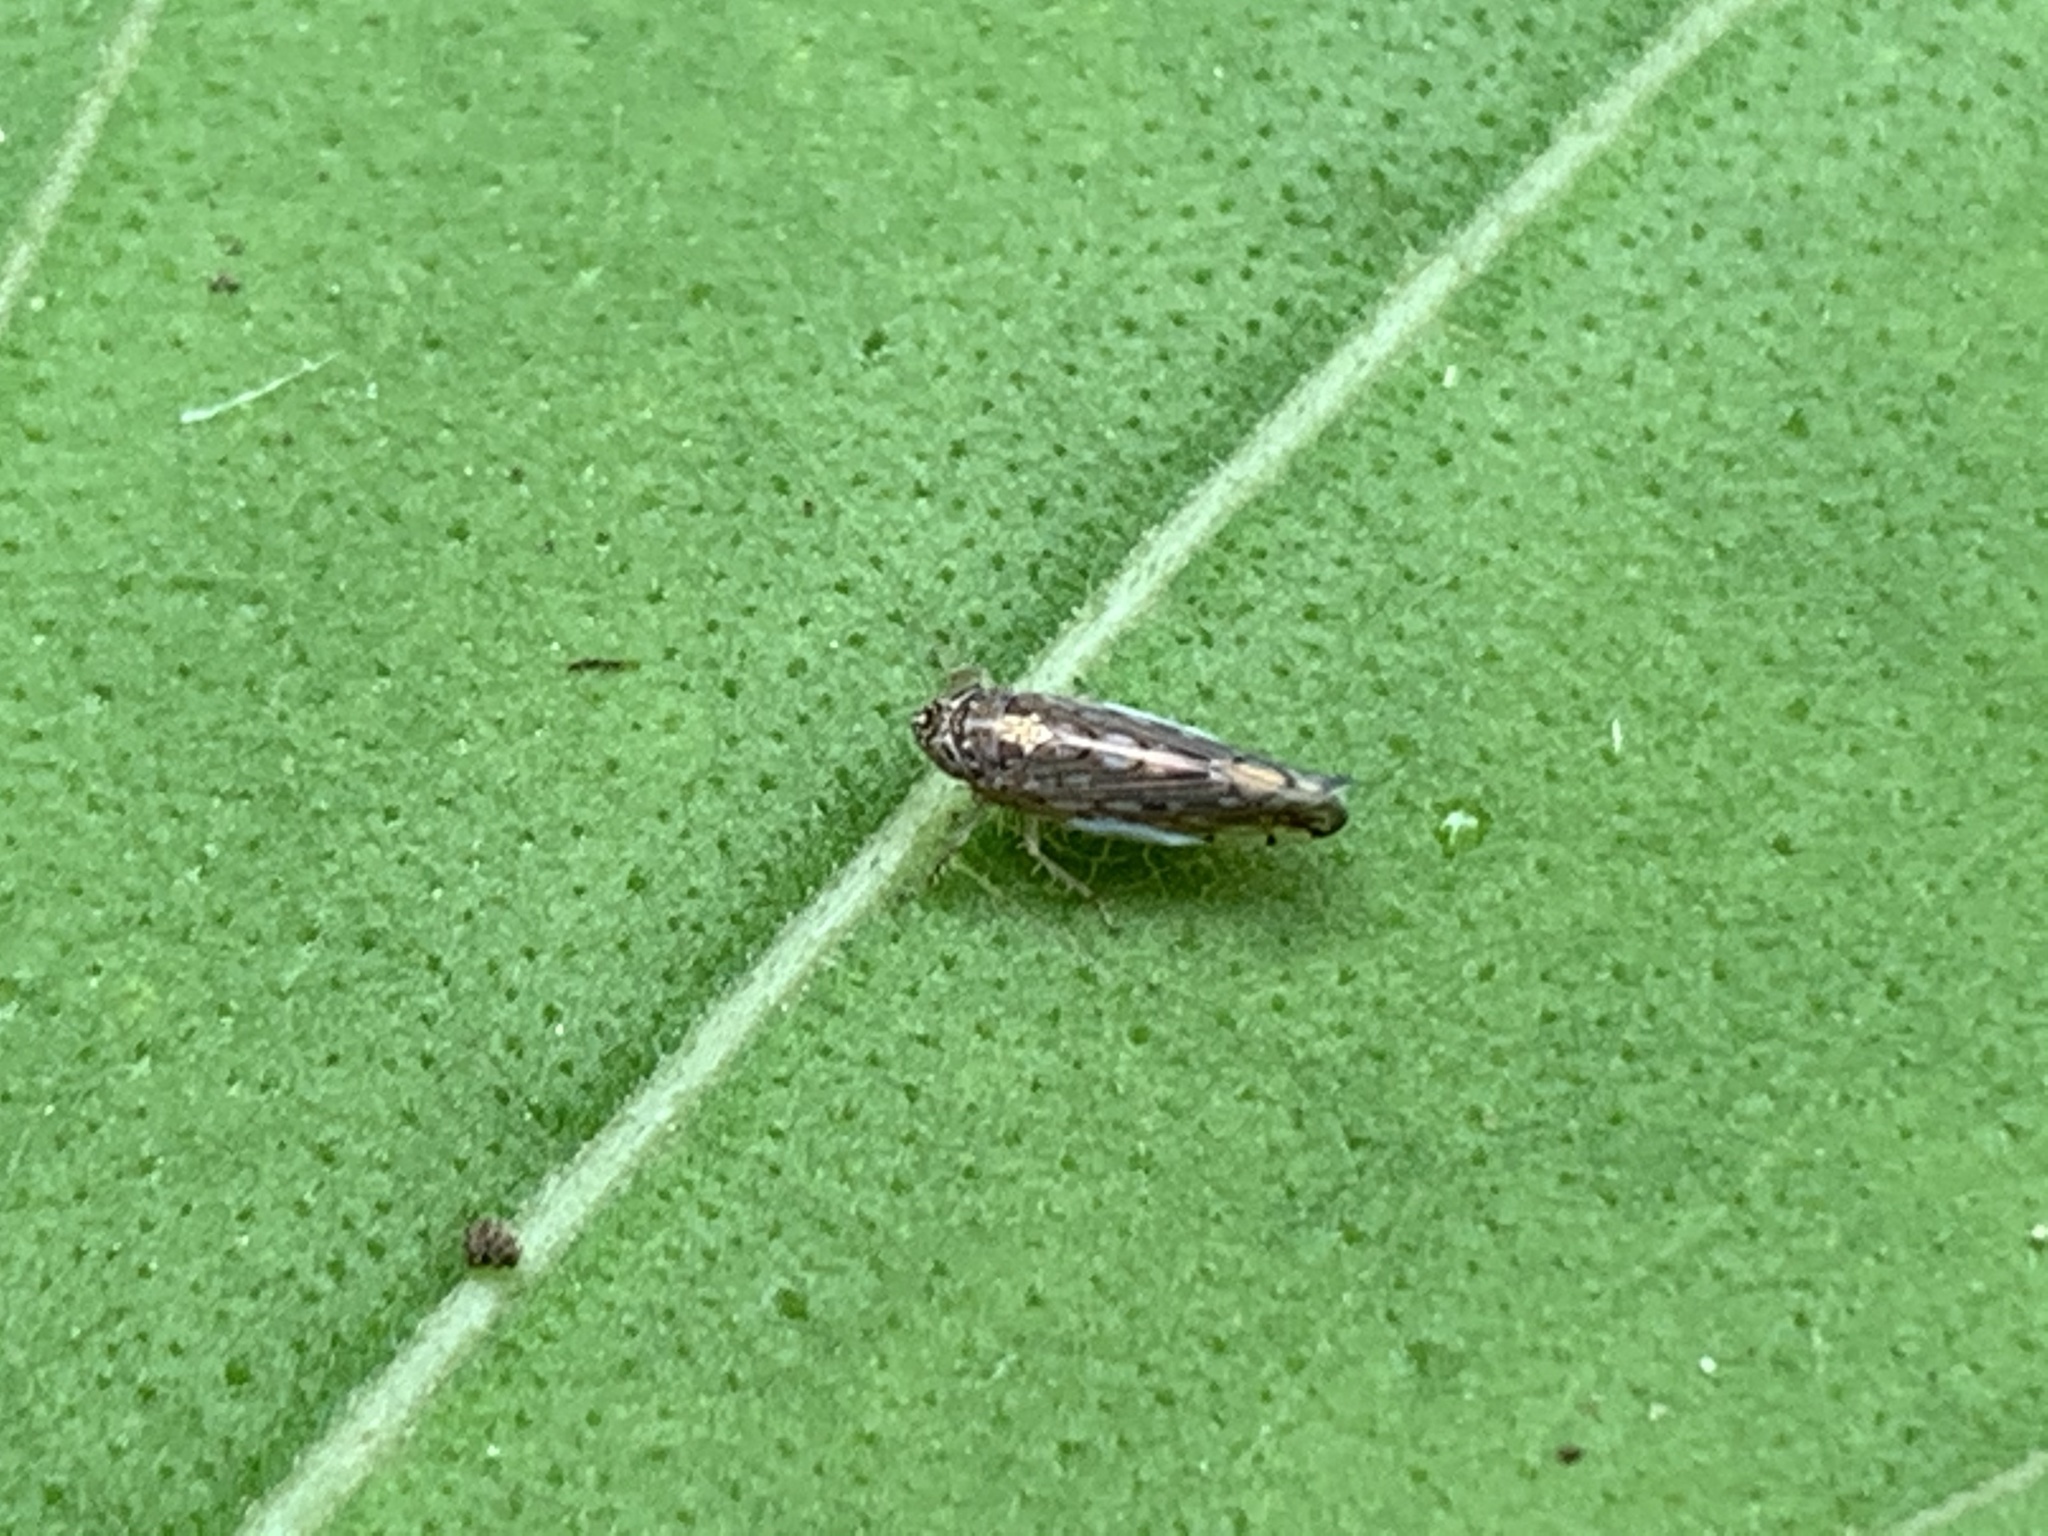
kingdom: Animalia
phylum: Arthropoda
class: Insecta
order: Hemiptera
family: Cicadellidae
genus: Osbornellus
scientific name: Osbornellus clarus
